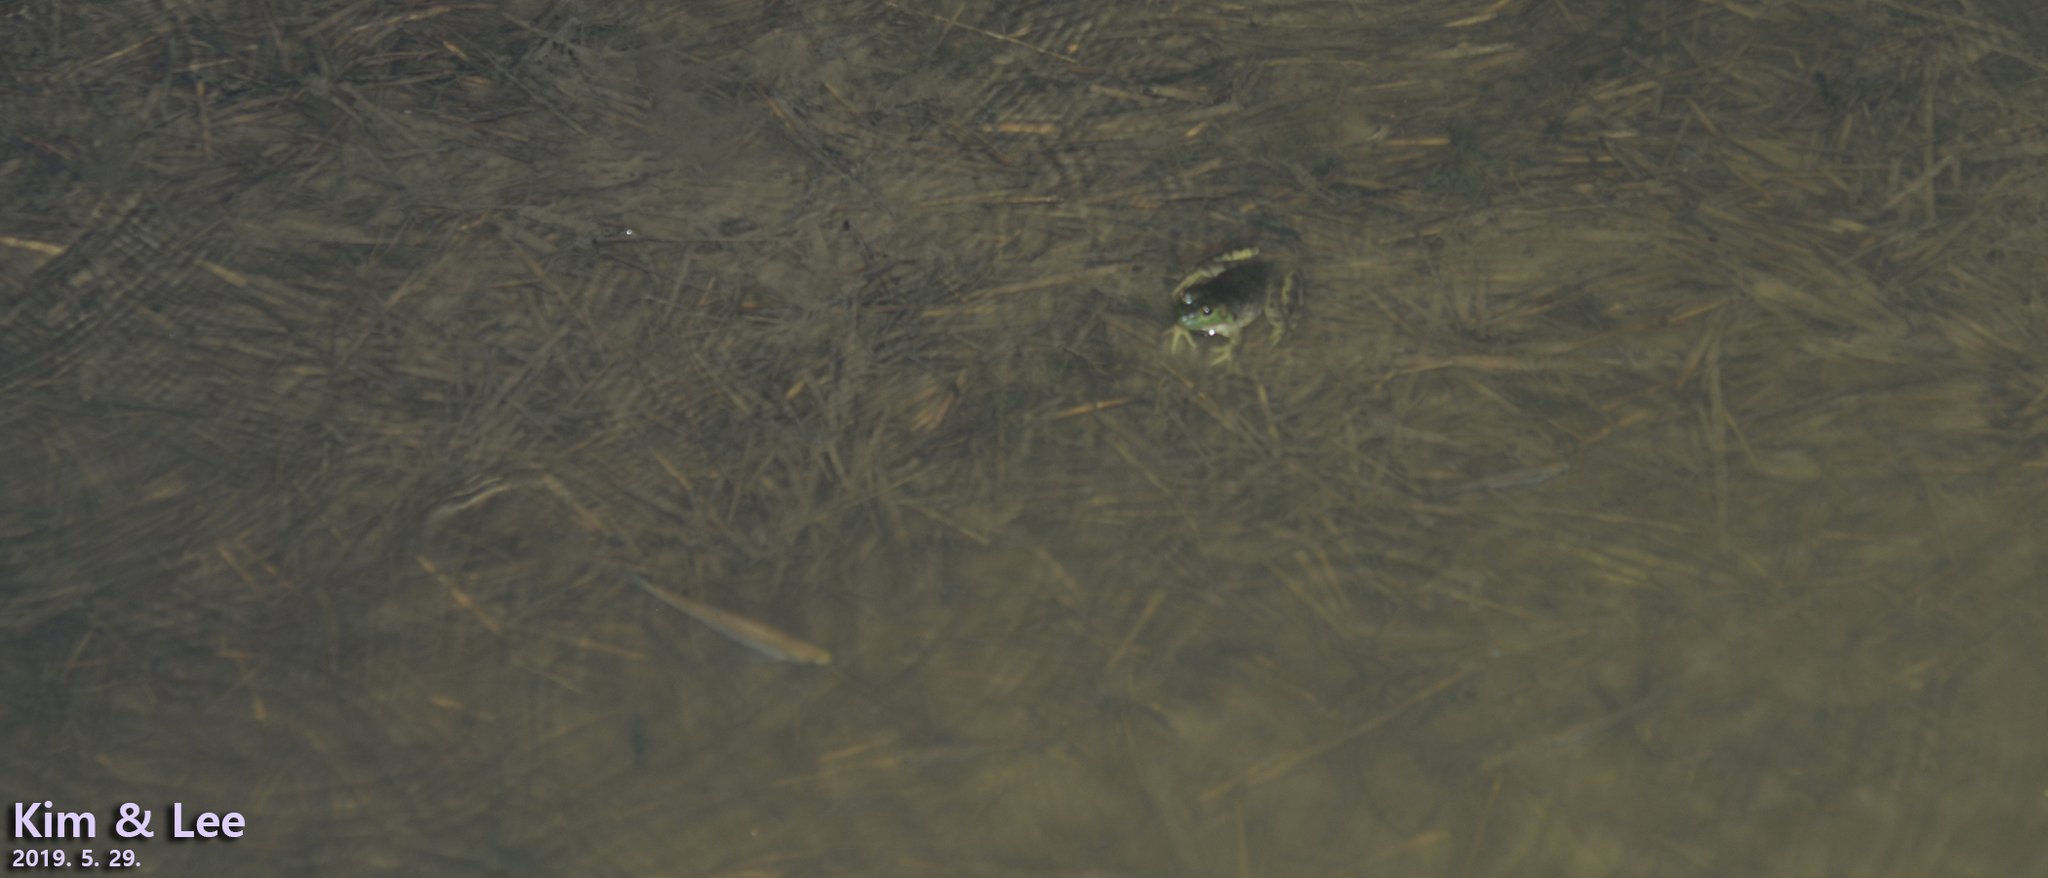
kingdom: Animalia
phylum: Chordata
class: Amphibia
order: Anura
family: Ranidae
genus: Lithobates
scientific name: Lithobates catesbeianus
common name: American bullfrog
